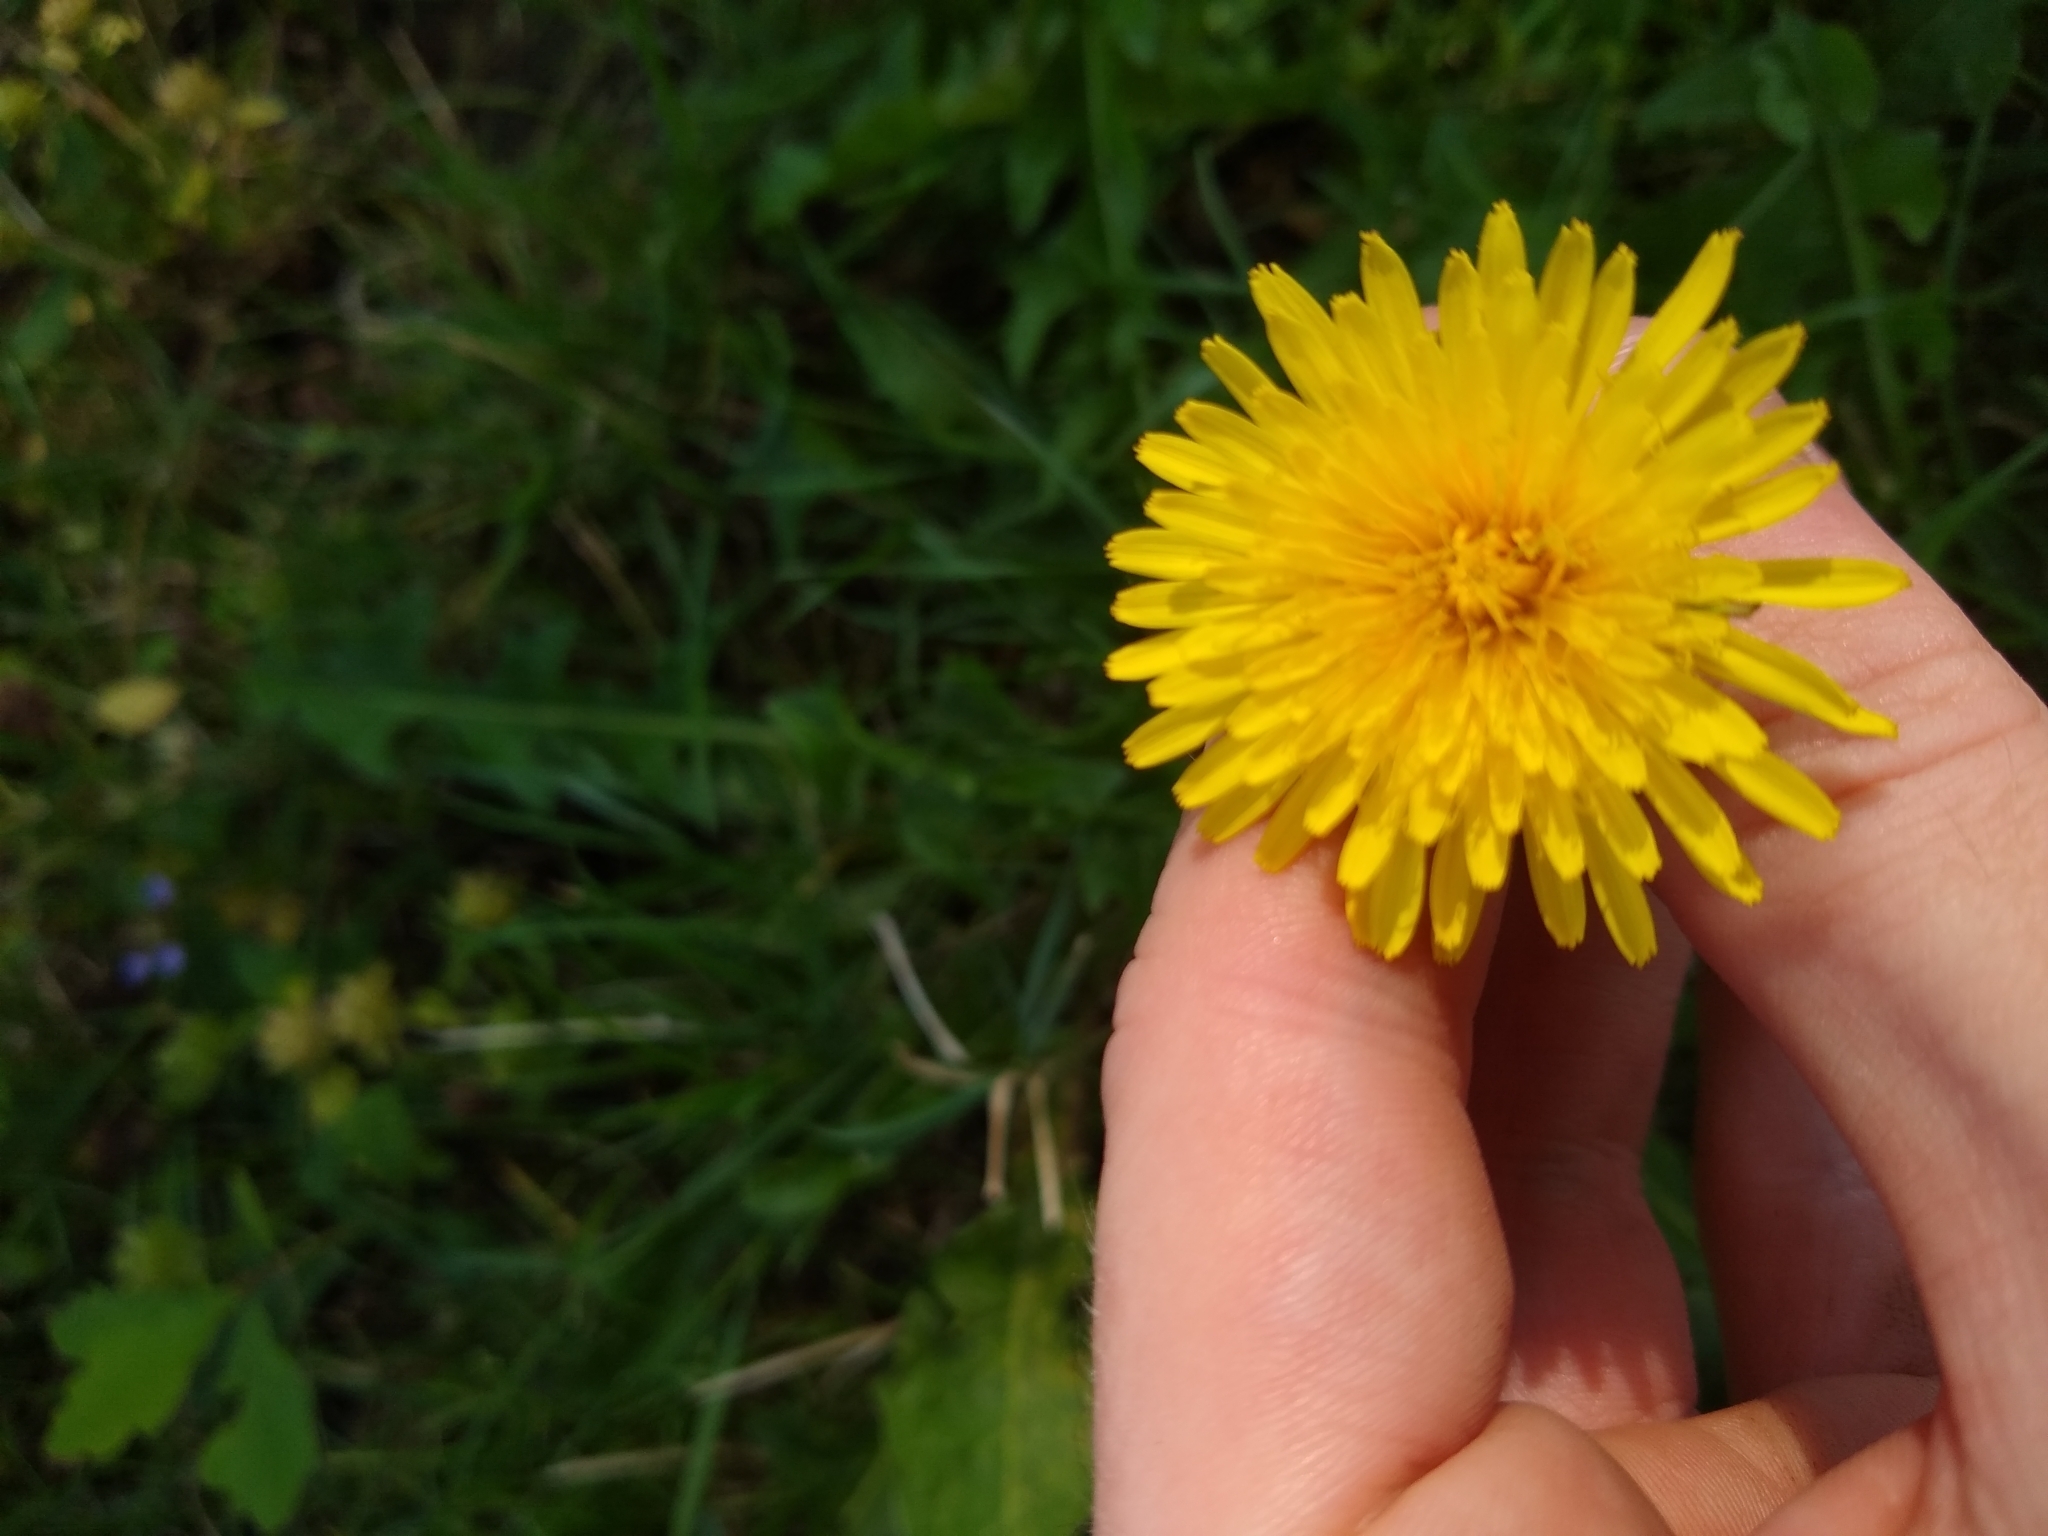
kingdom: Plantae
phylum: Tracheophyta
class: Magnoliopsida
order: Asterales
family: Asteraceae
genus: Taraxacum
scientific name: Taraxacum officinale
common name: Common dandelion
